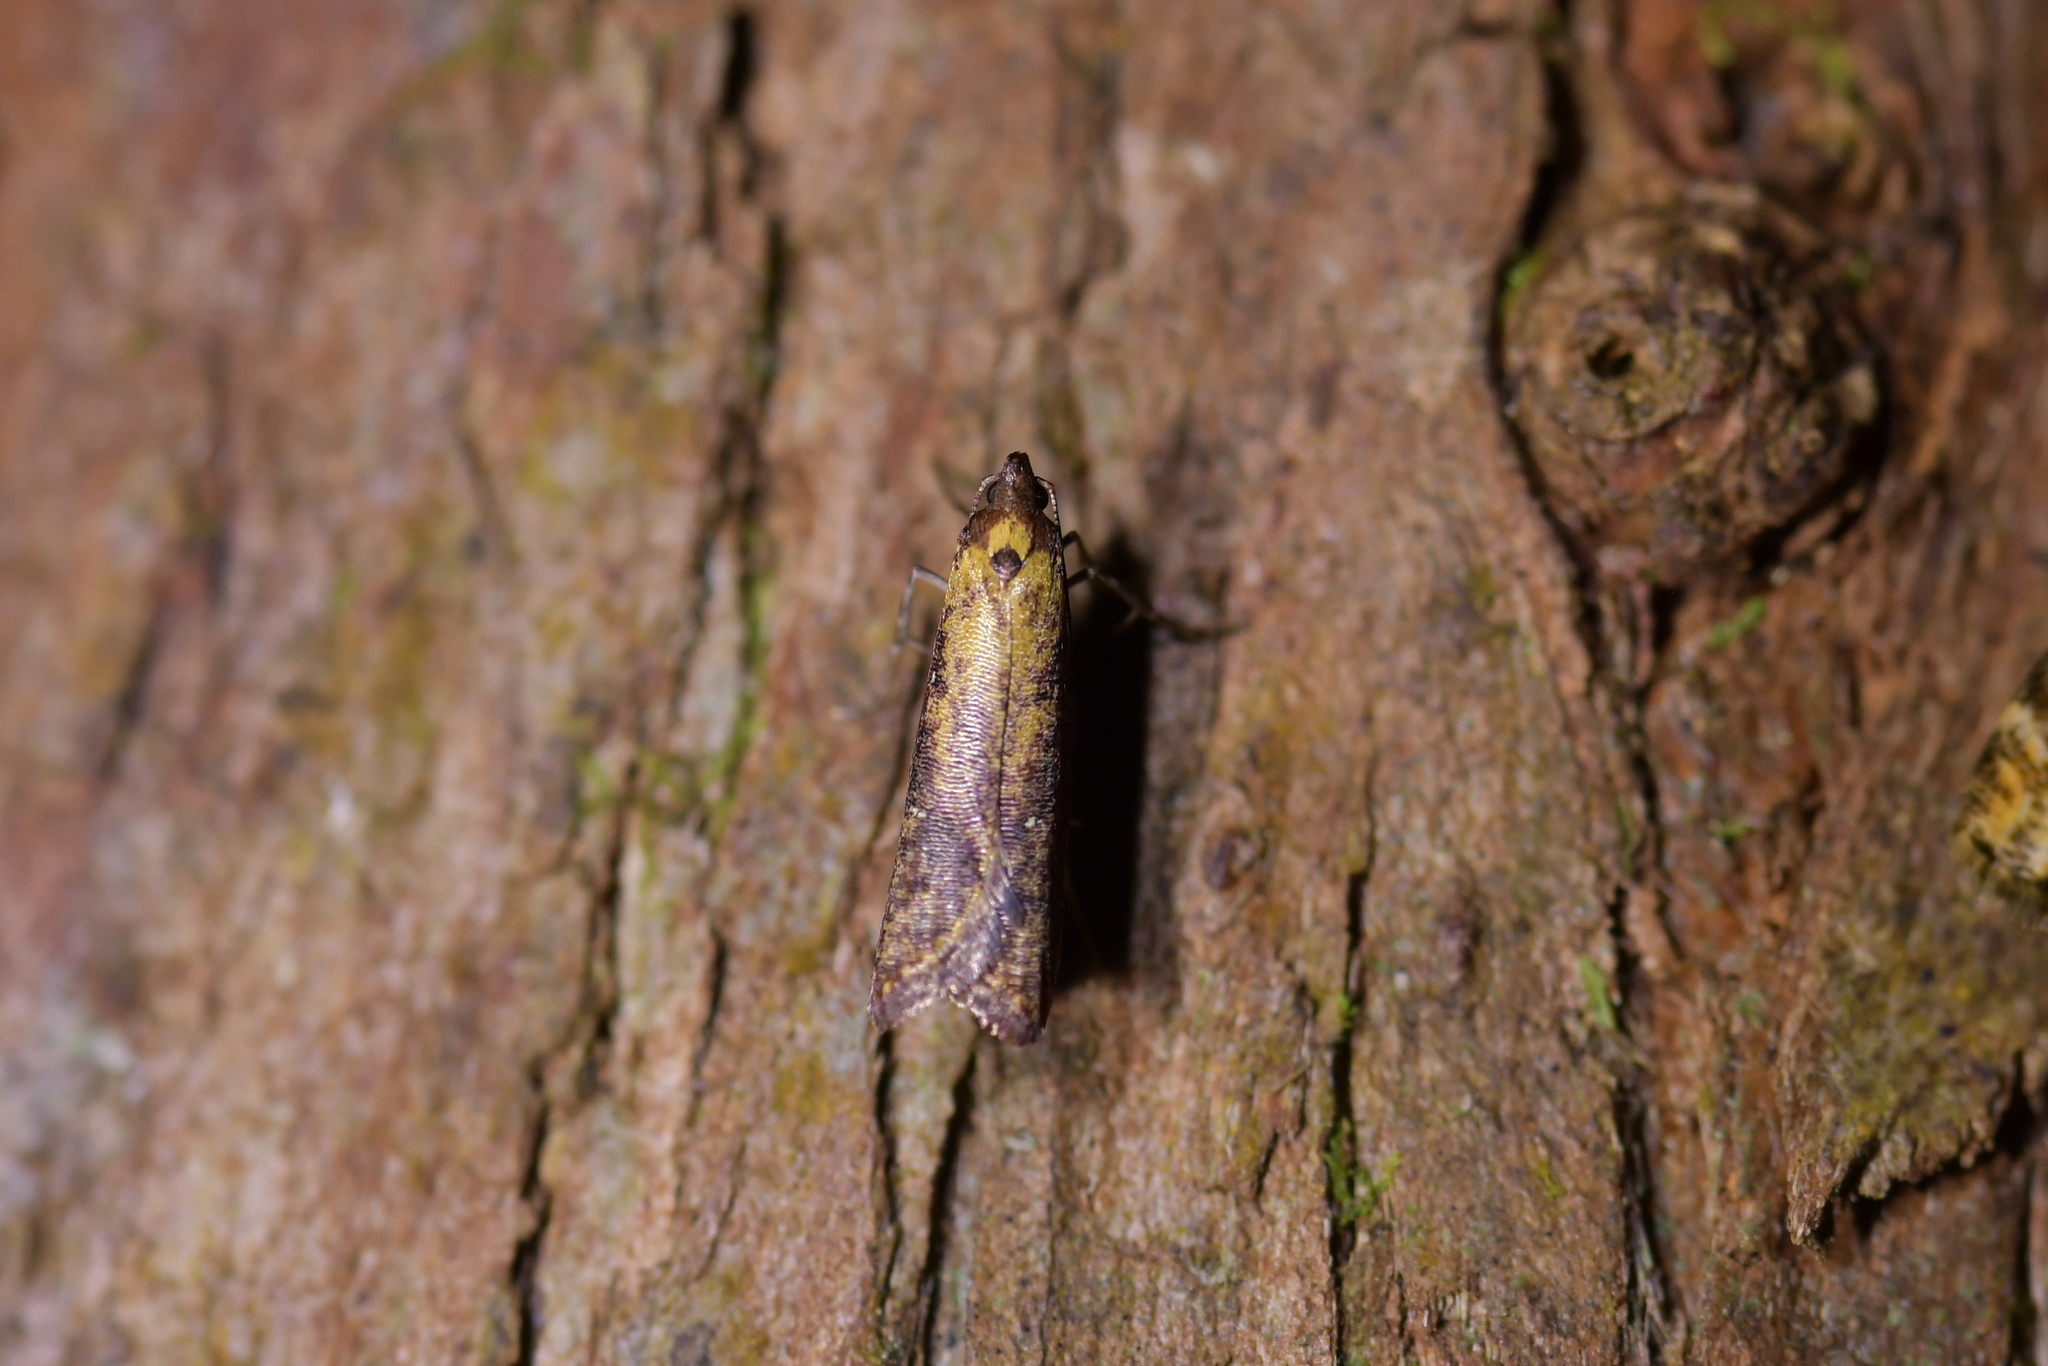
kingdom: Animalia
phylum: Arthropoda
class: Insecta
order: Lepidoptera
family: Plutellidae
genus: Cadmogenes
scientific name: Cadmogenes literata
